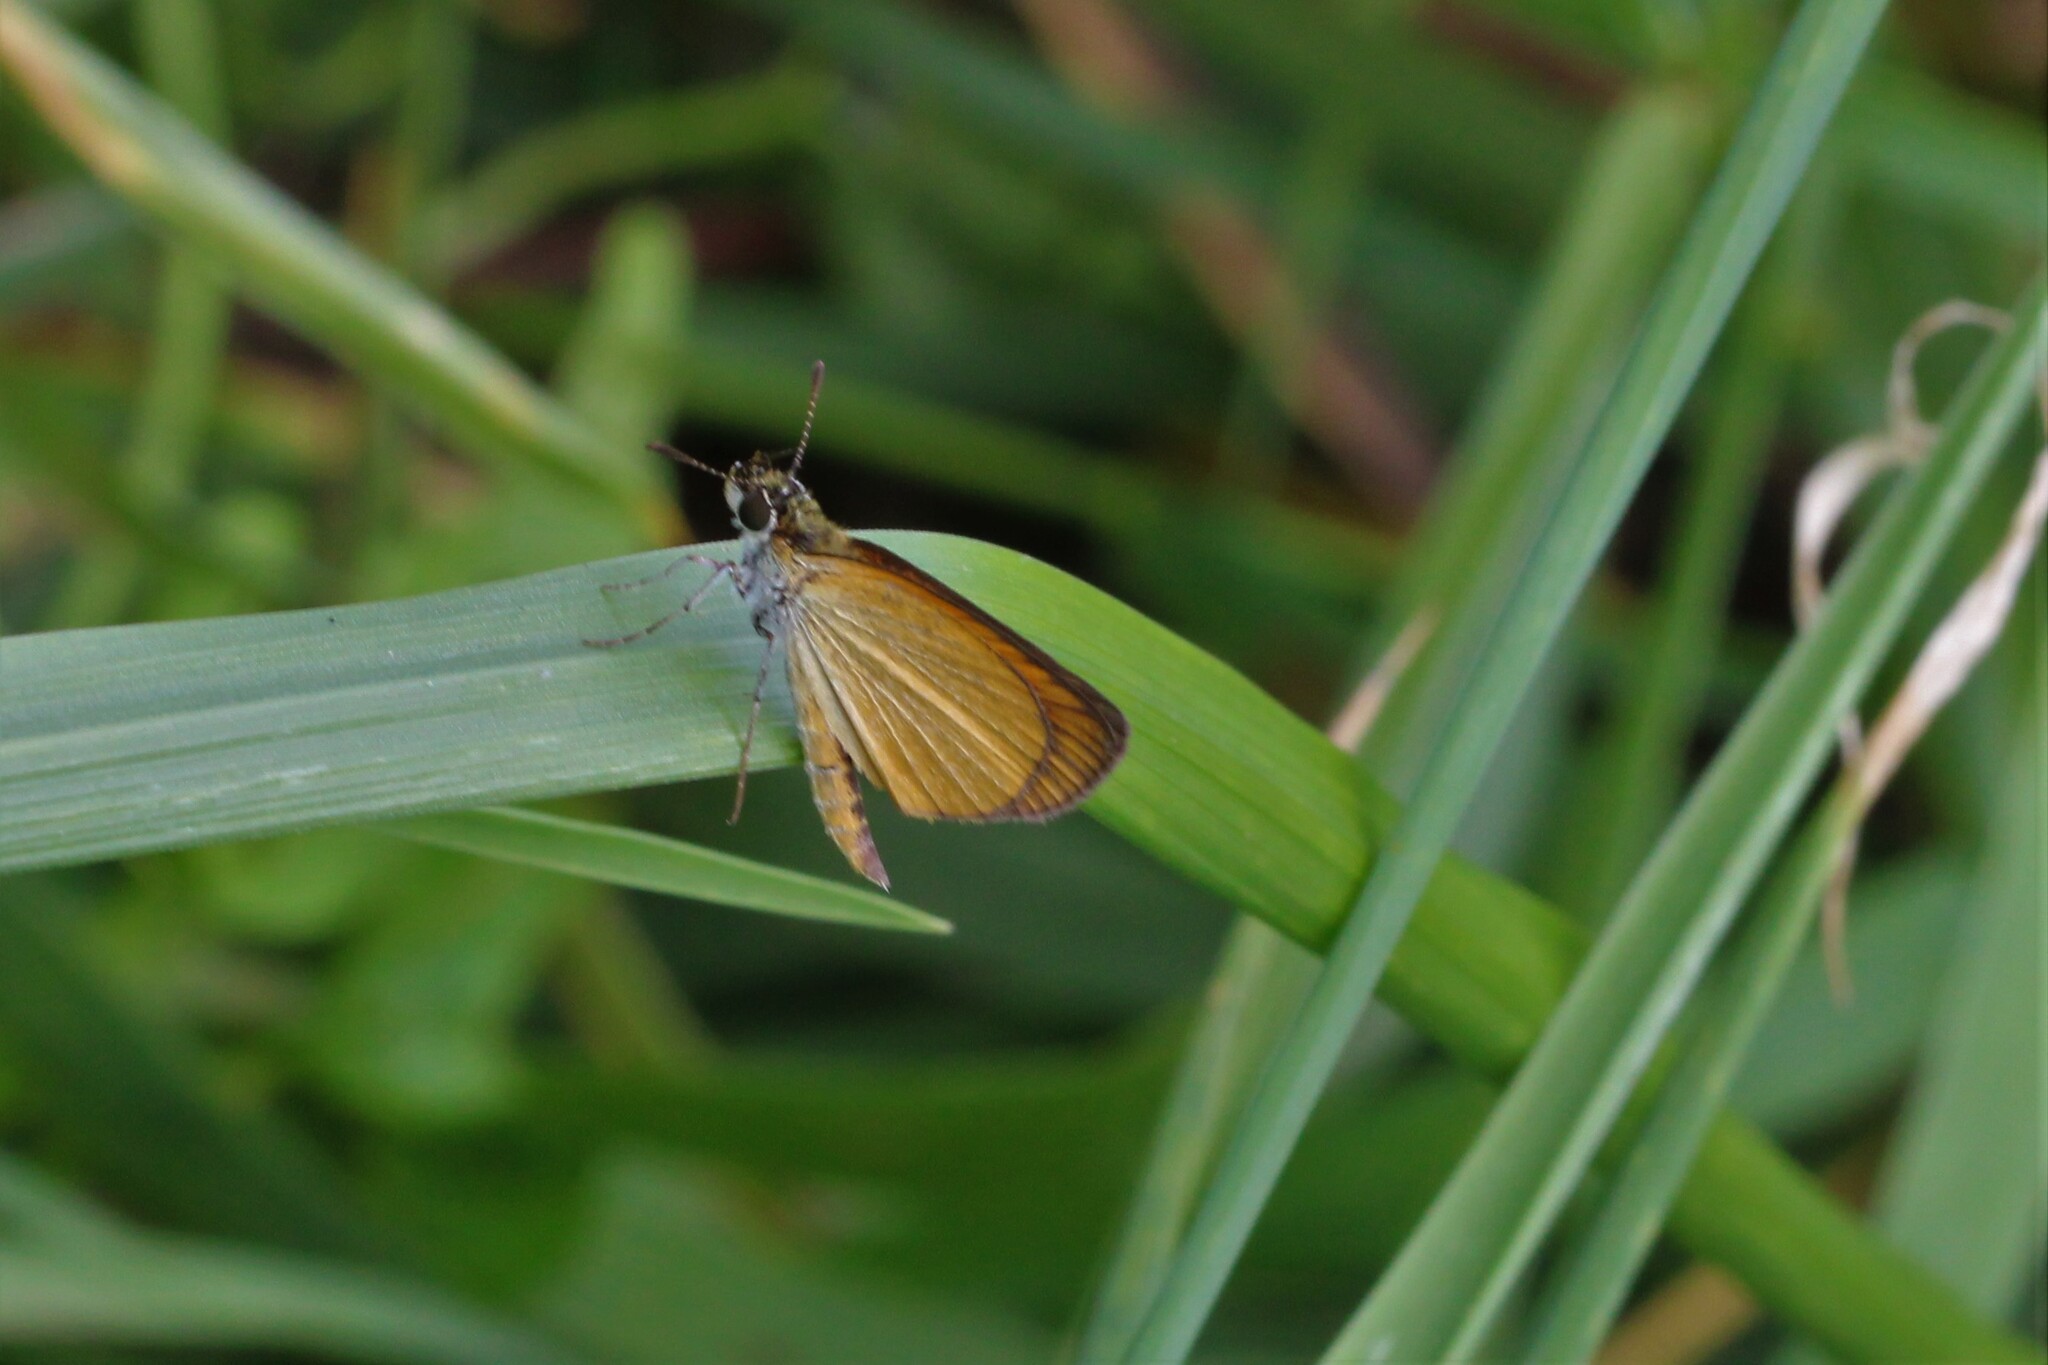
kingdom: Animalia
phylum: Arthropoda
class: Insecta
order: Lepidoptera
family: Hesperiidae
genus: Ancyloxypha
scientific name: Ancyloxypha numitor
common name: Least skipper
